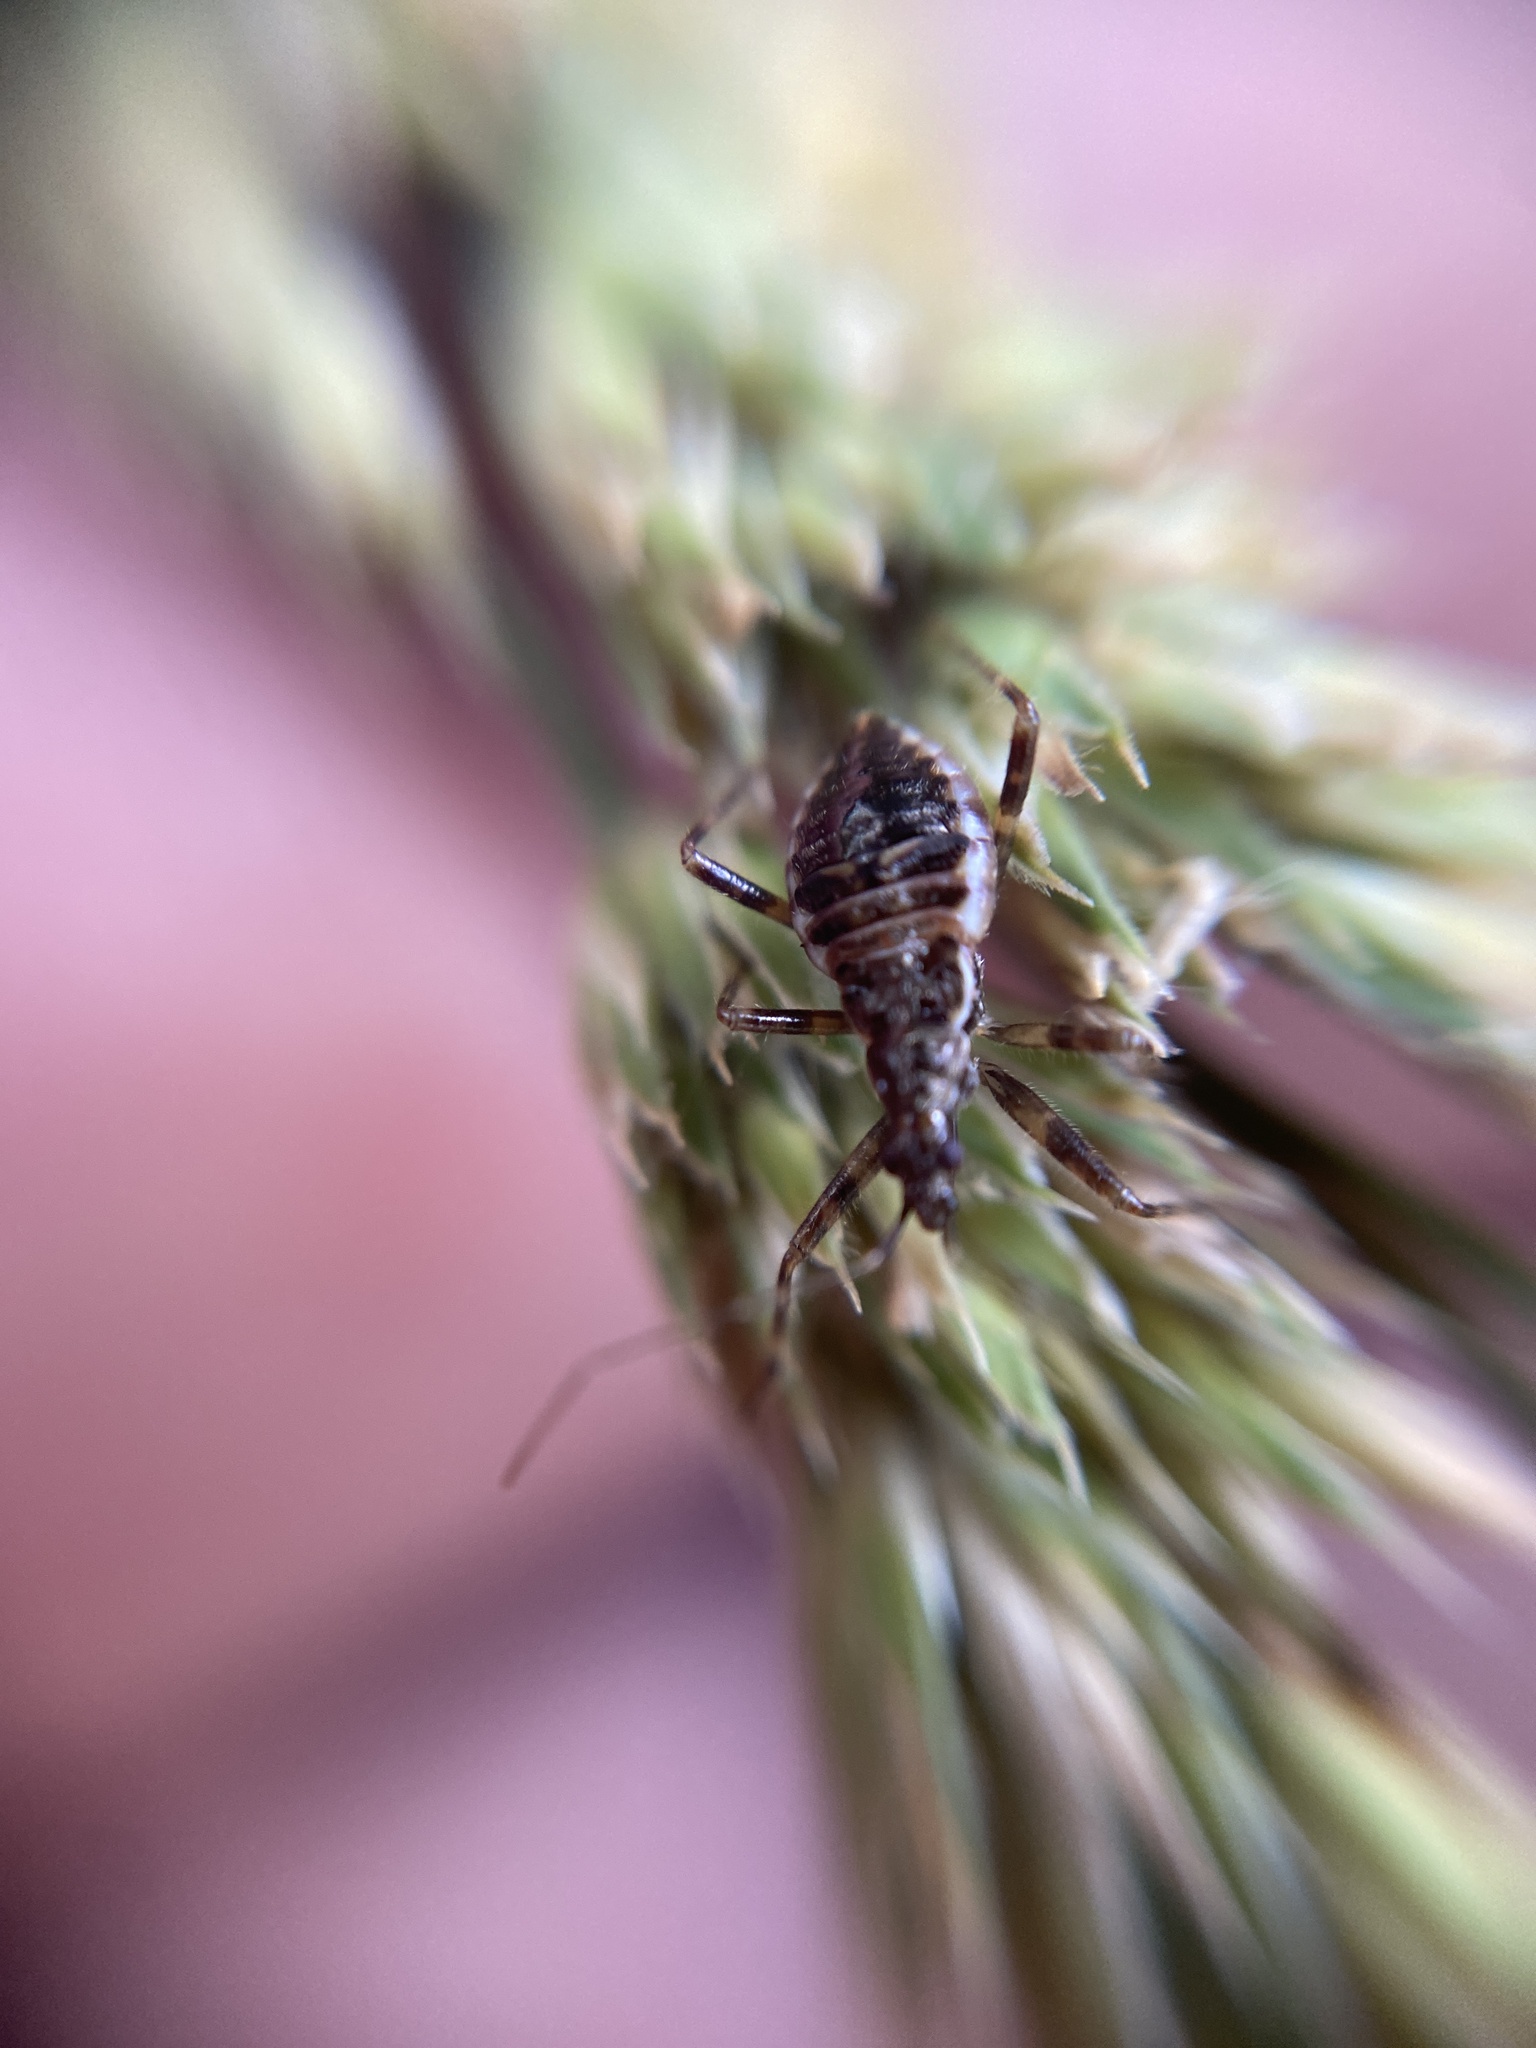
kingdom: Animalia
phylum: Arthropoda
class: Insecta
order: Hemiptera
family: Nabidae
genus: Himacerus
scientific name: Himacerus apterus
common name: Tree damsel bug
